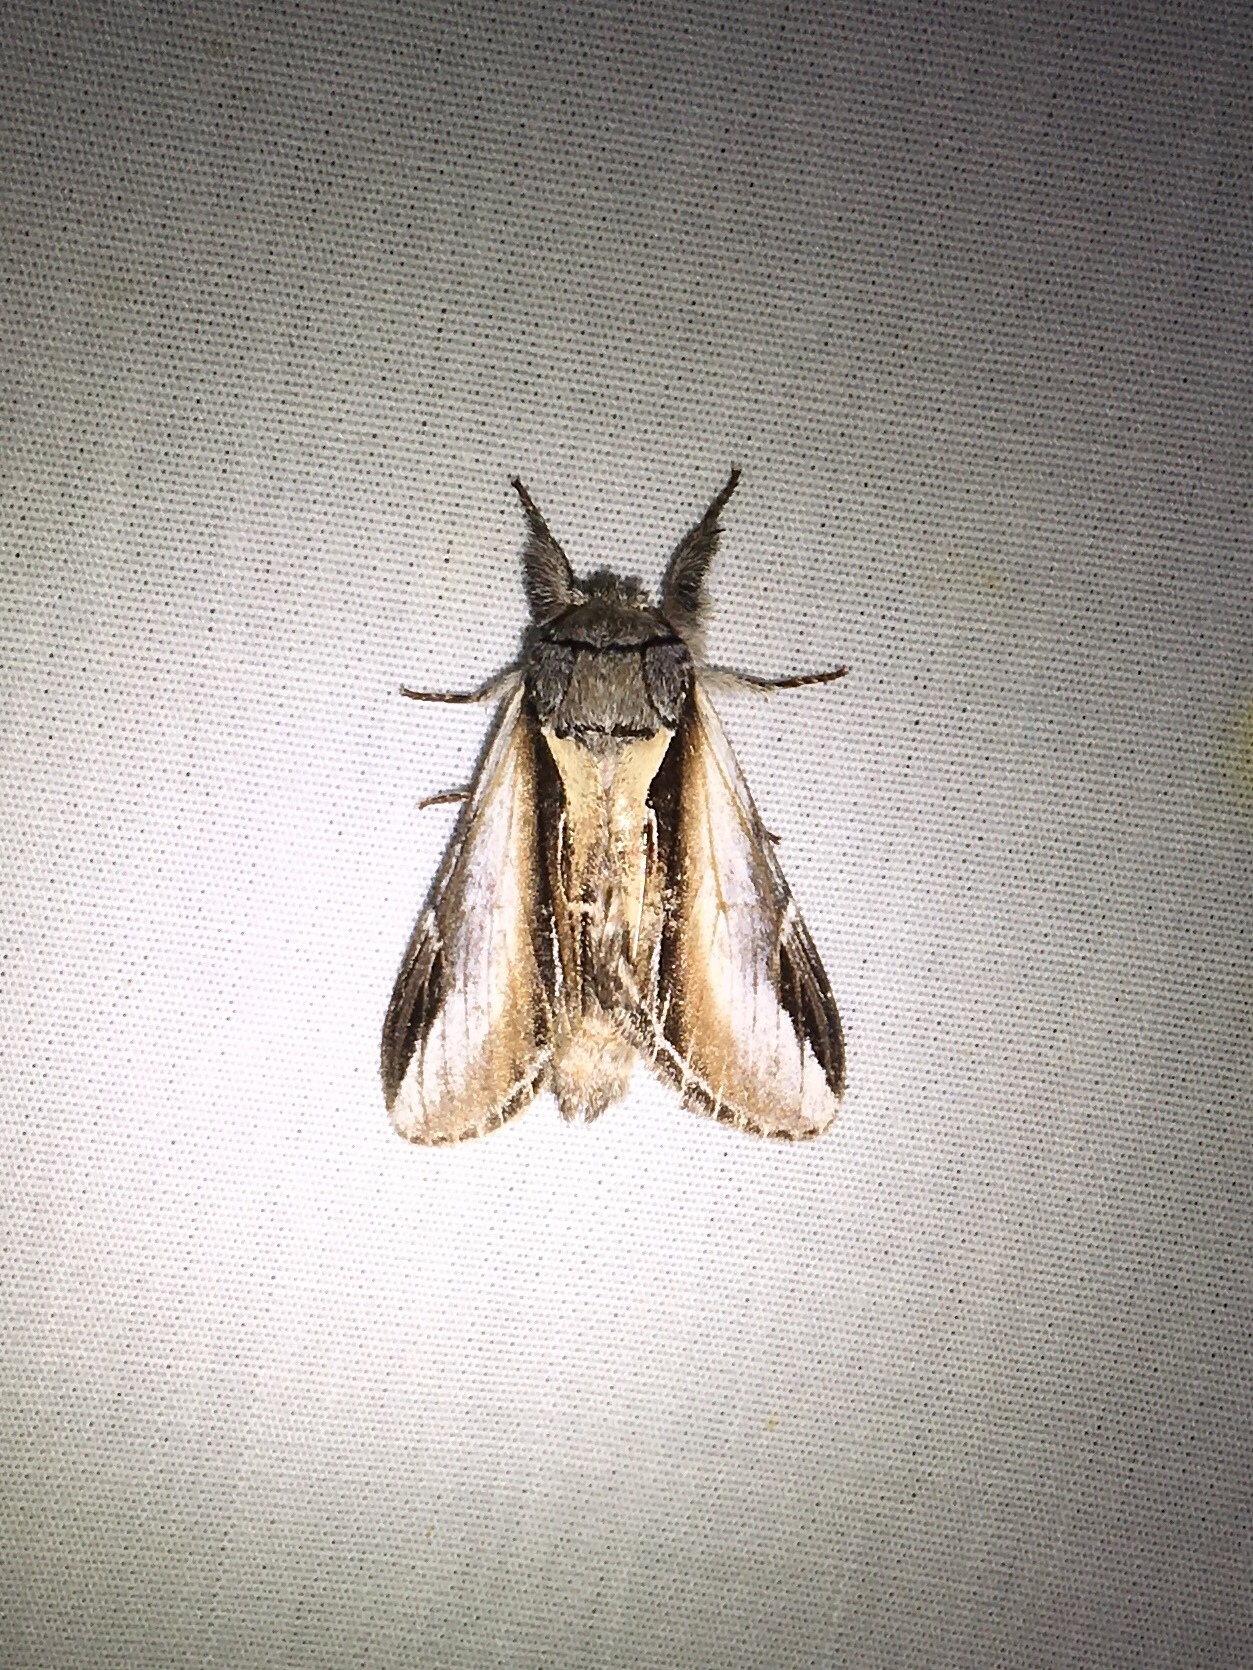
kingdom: Animalia
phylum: Arthropoda
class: Insecta
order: Lepidoptera
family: Notodontidae
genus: Pheosia
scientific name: Pheosia rimosa
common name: Black-rimmed prominent
